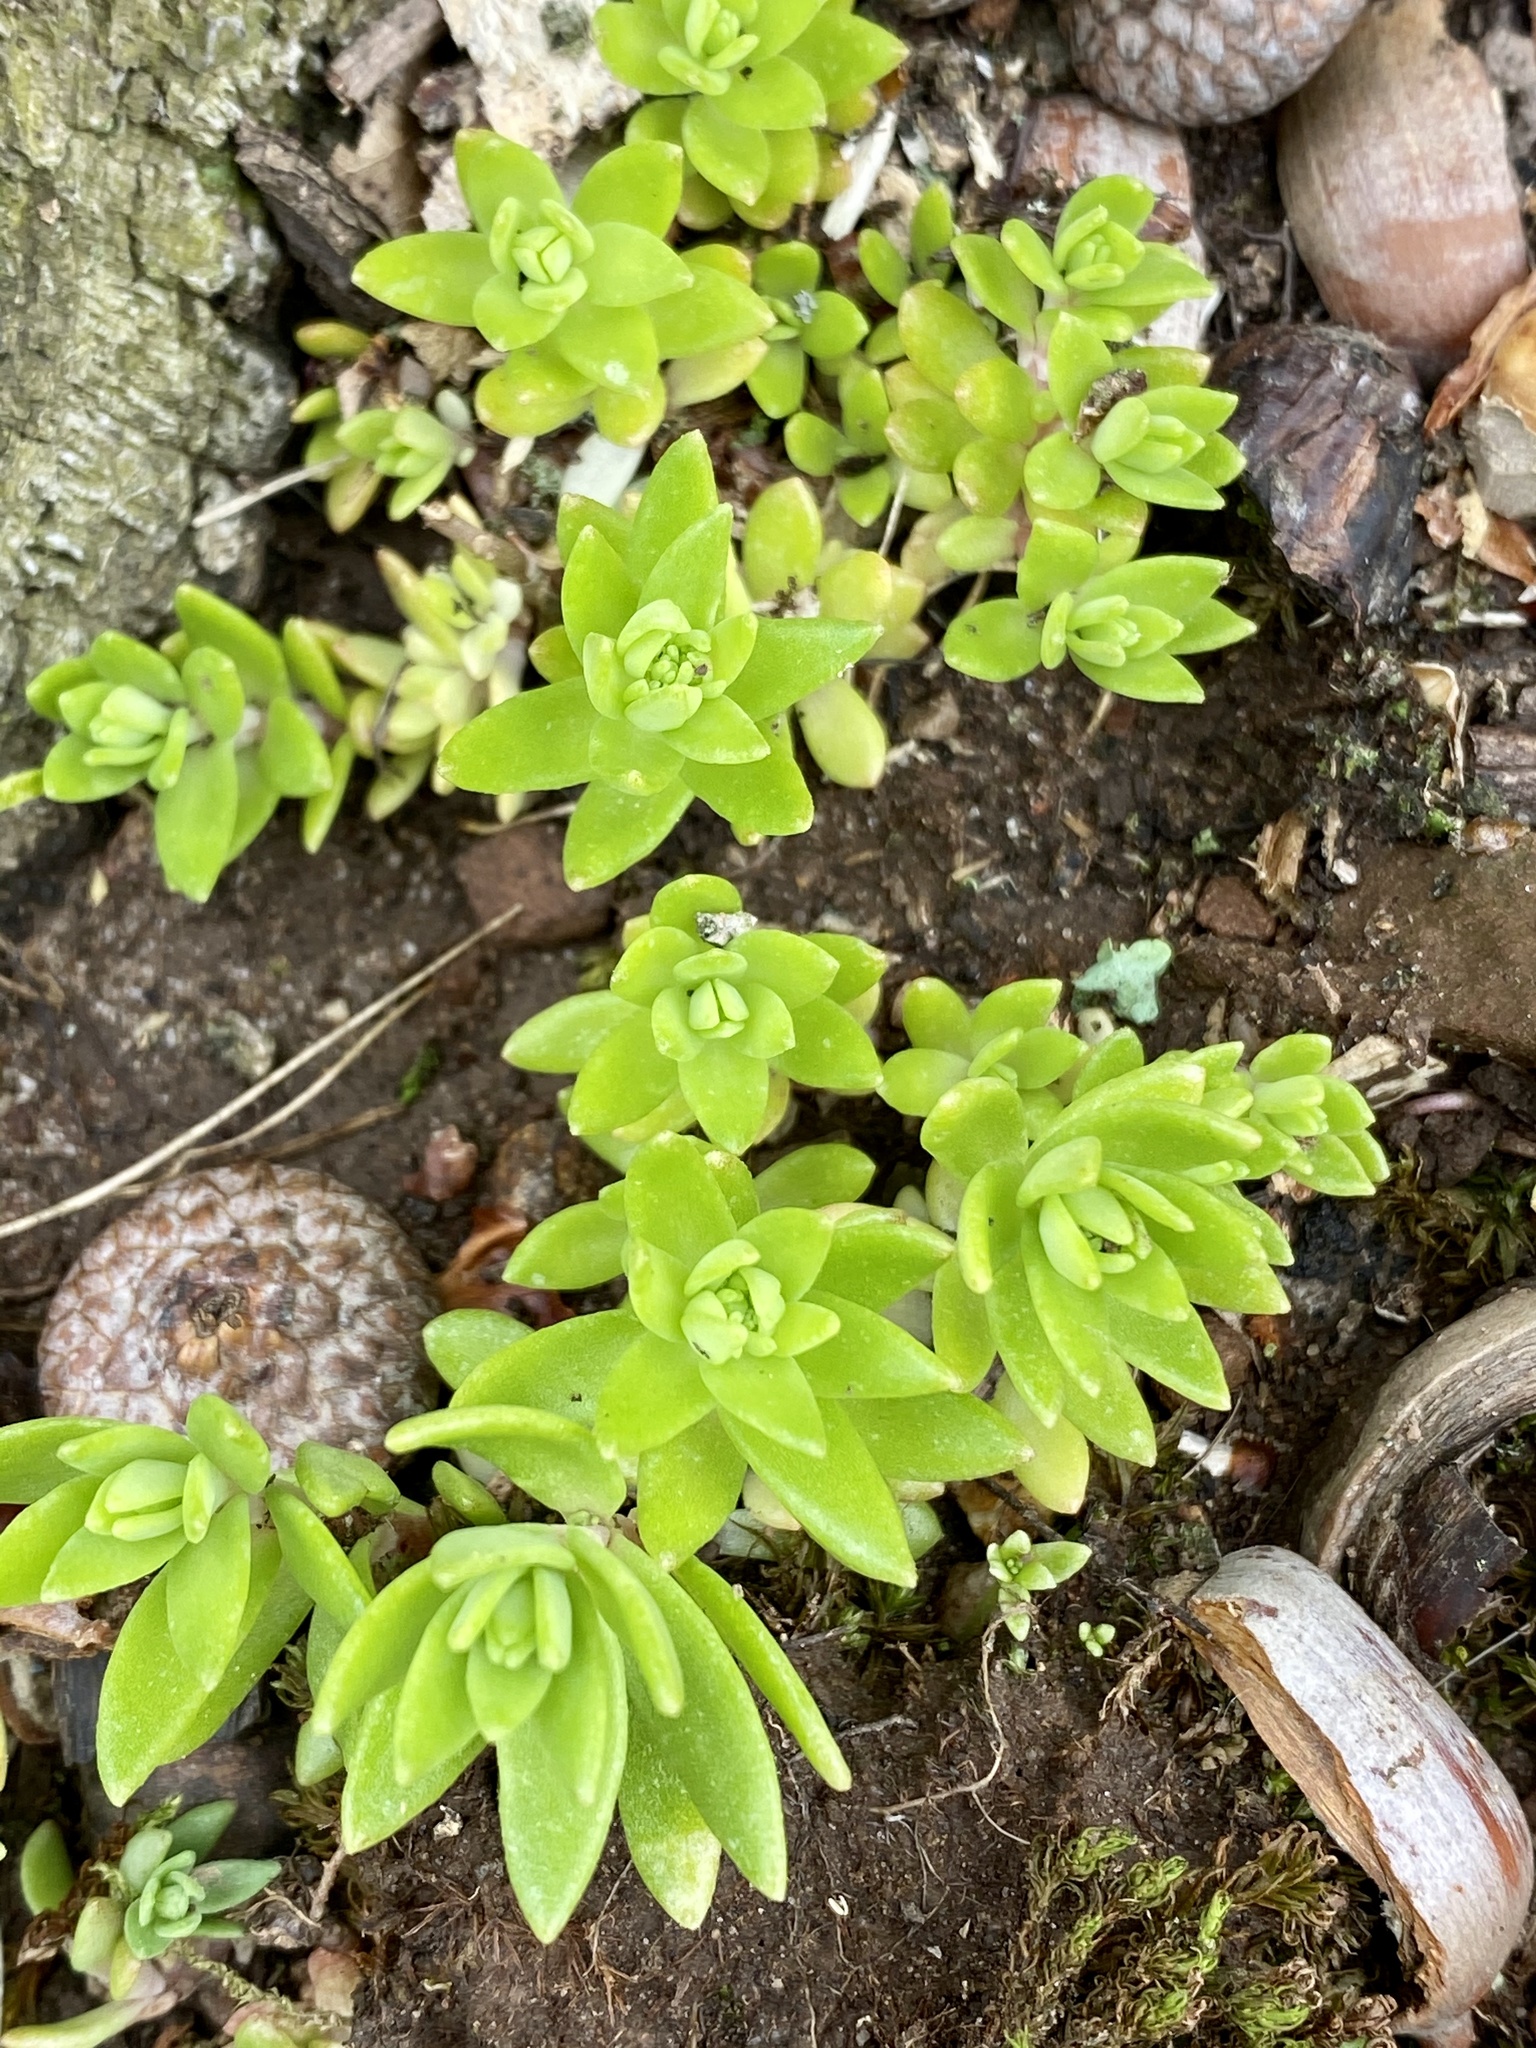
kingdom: Plantae
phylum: Tracheophyta
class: Magnoliopsida
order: Saxifragales
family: Crassulaceae
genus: Sedum
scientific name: Sedum sarmentosum
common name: Stringy stonecrop
